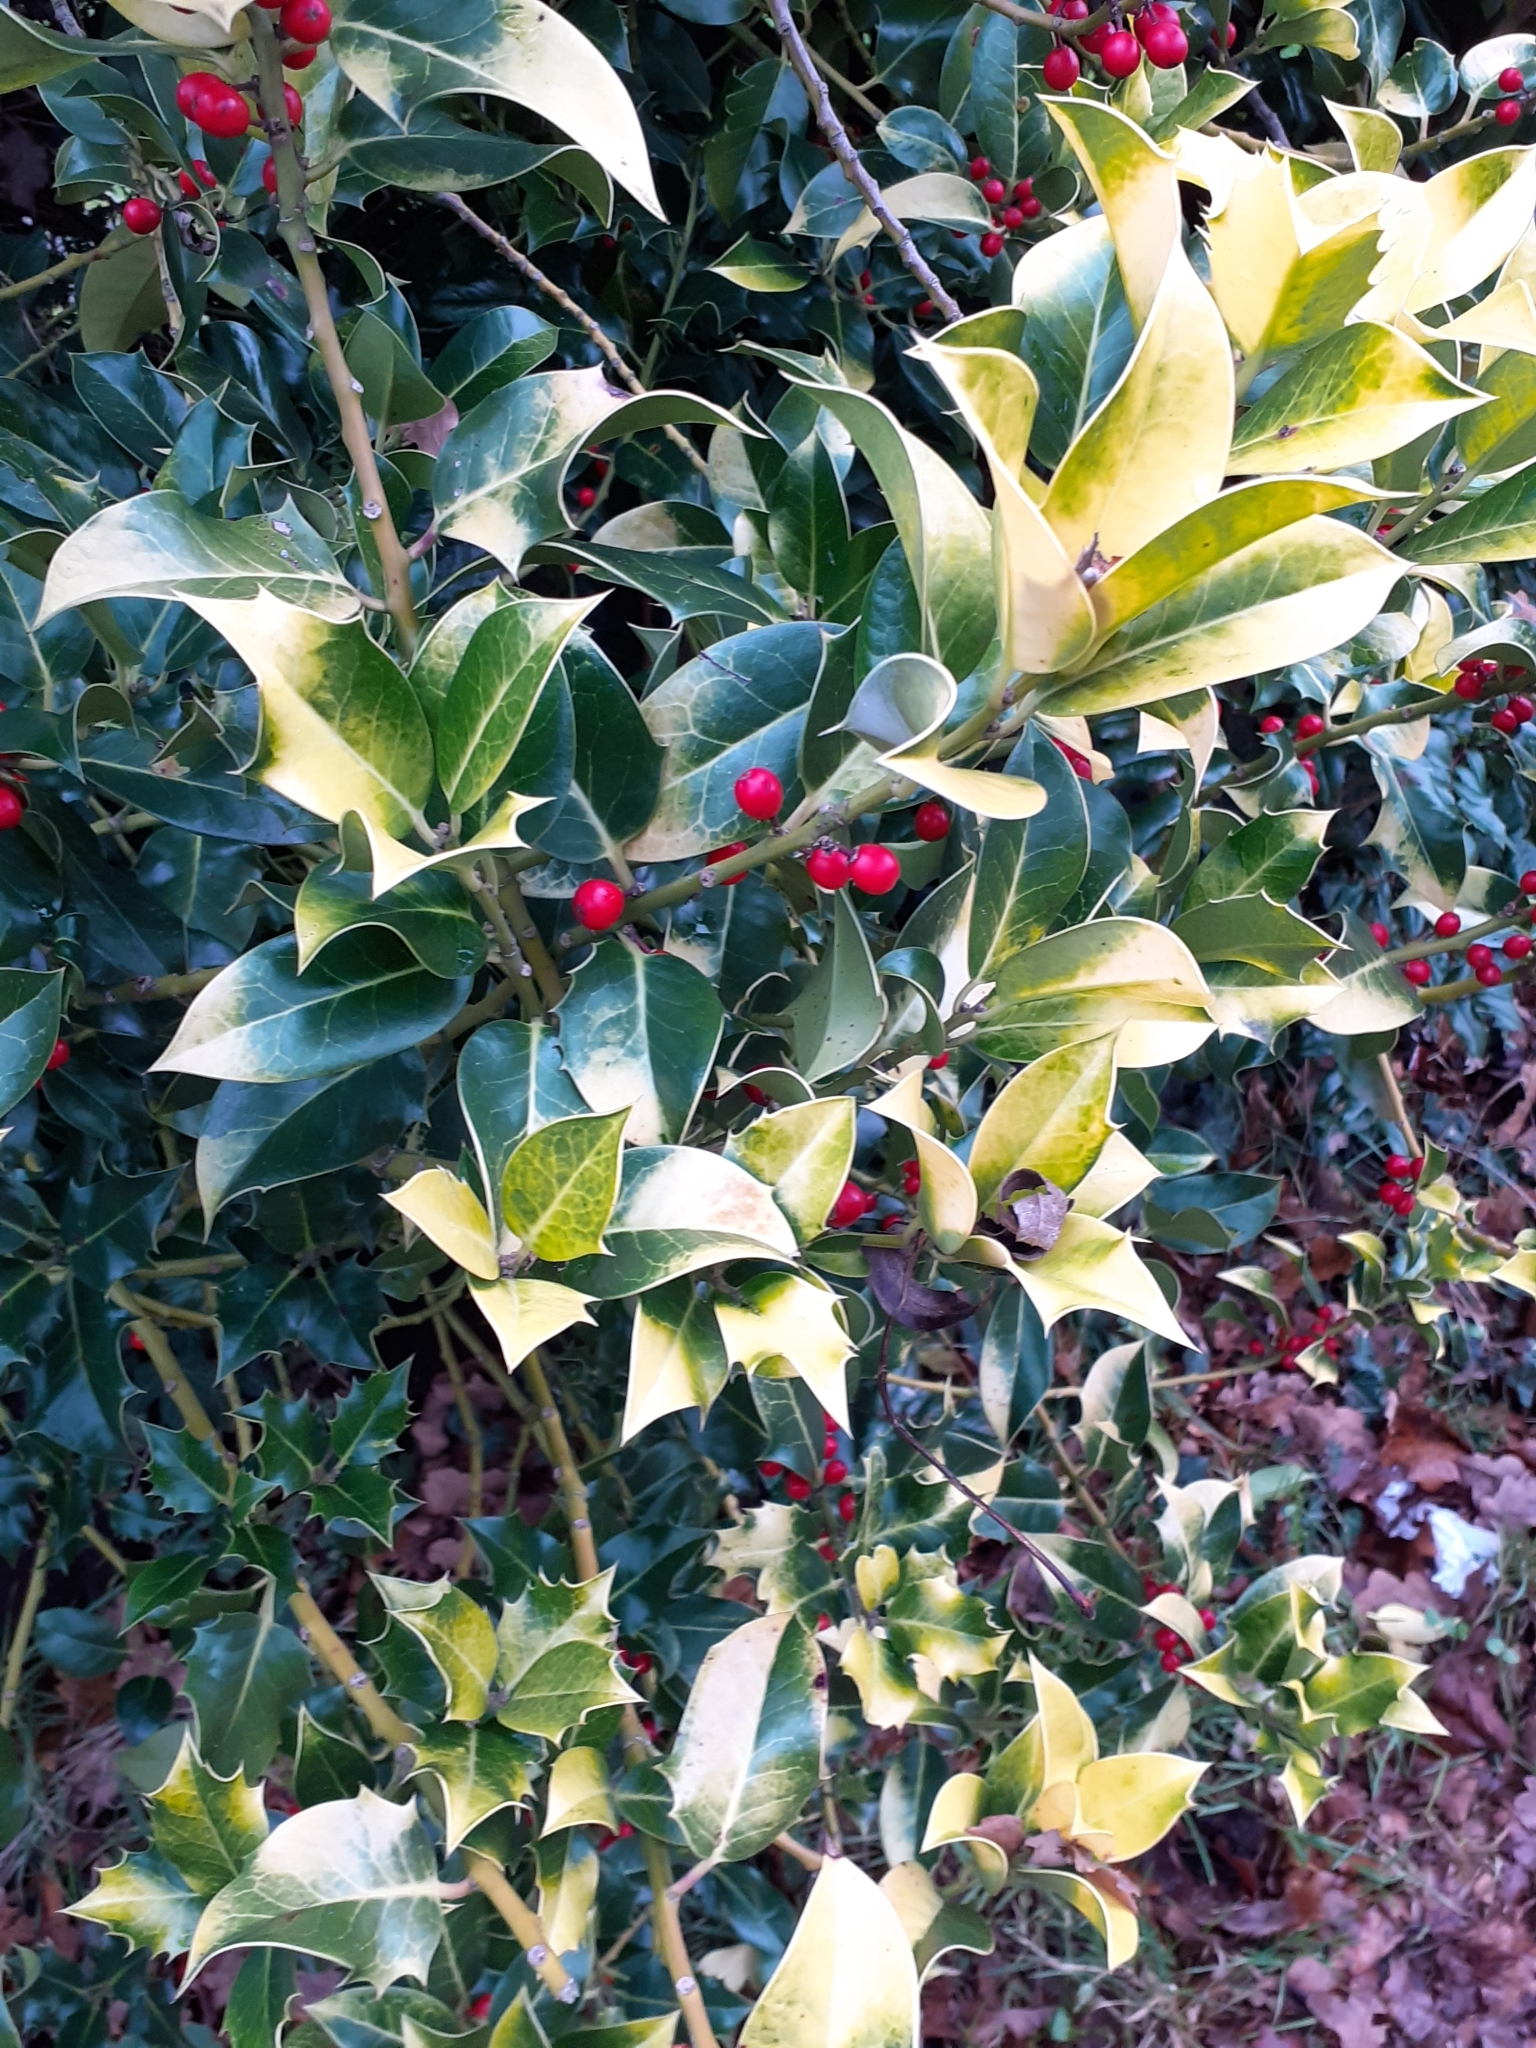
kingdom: Plantae
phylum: Tracheophyta
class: Magnoliopsida
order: Aquifoliales
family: Aquifoliaceae
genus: Ilex
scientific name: Ilex aquifolium
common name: English holly
